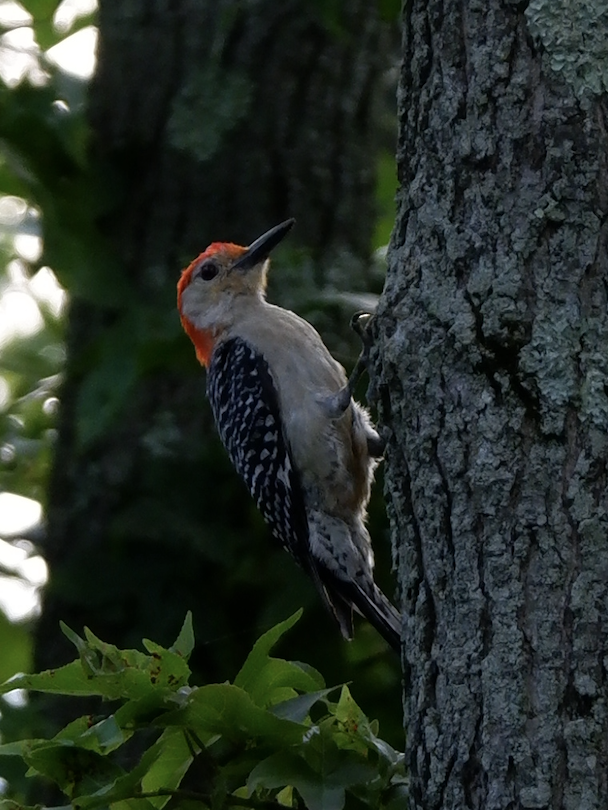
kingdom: Animalia
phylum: Chordata
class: Aves
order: Piciformes
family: Picidae
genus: Melanerpes
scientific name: Melanerpes carolinus
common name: Red-bellied woodpecker
